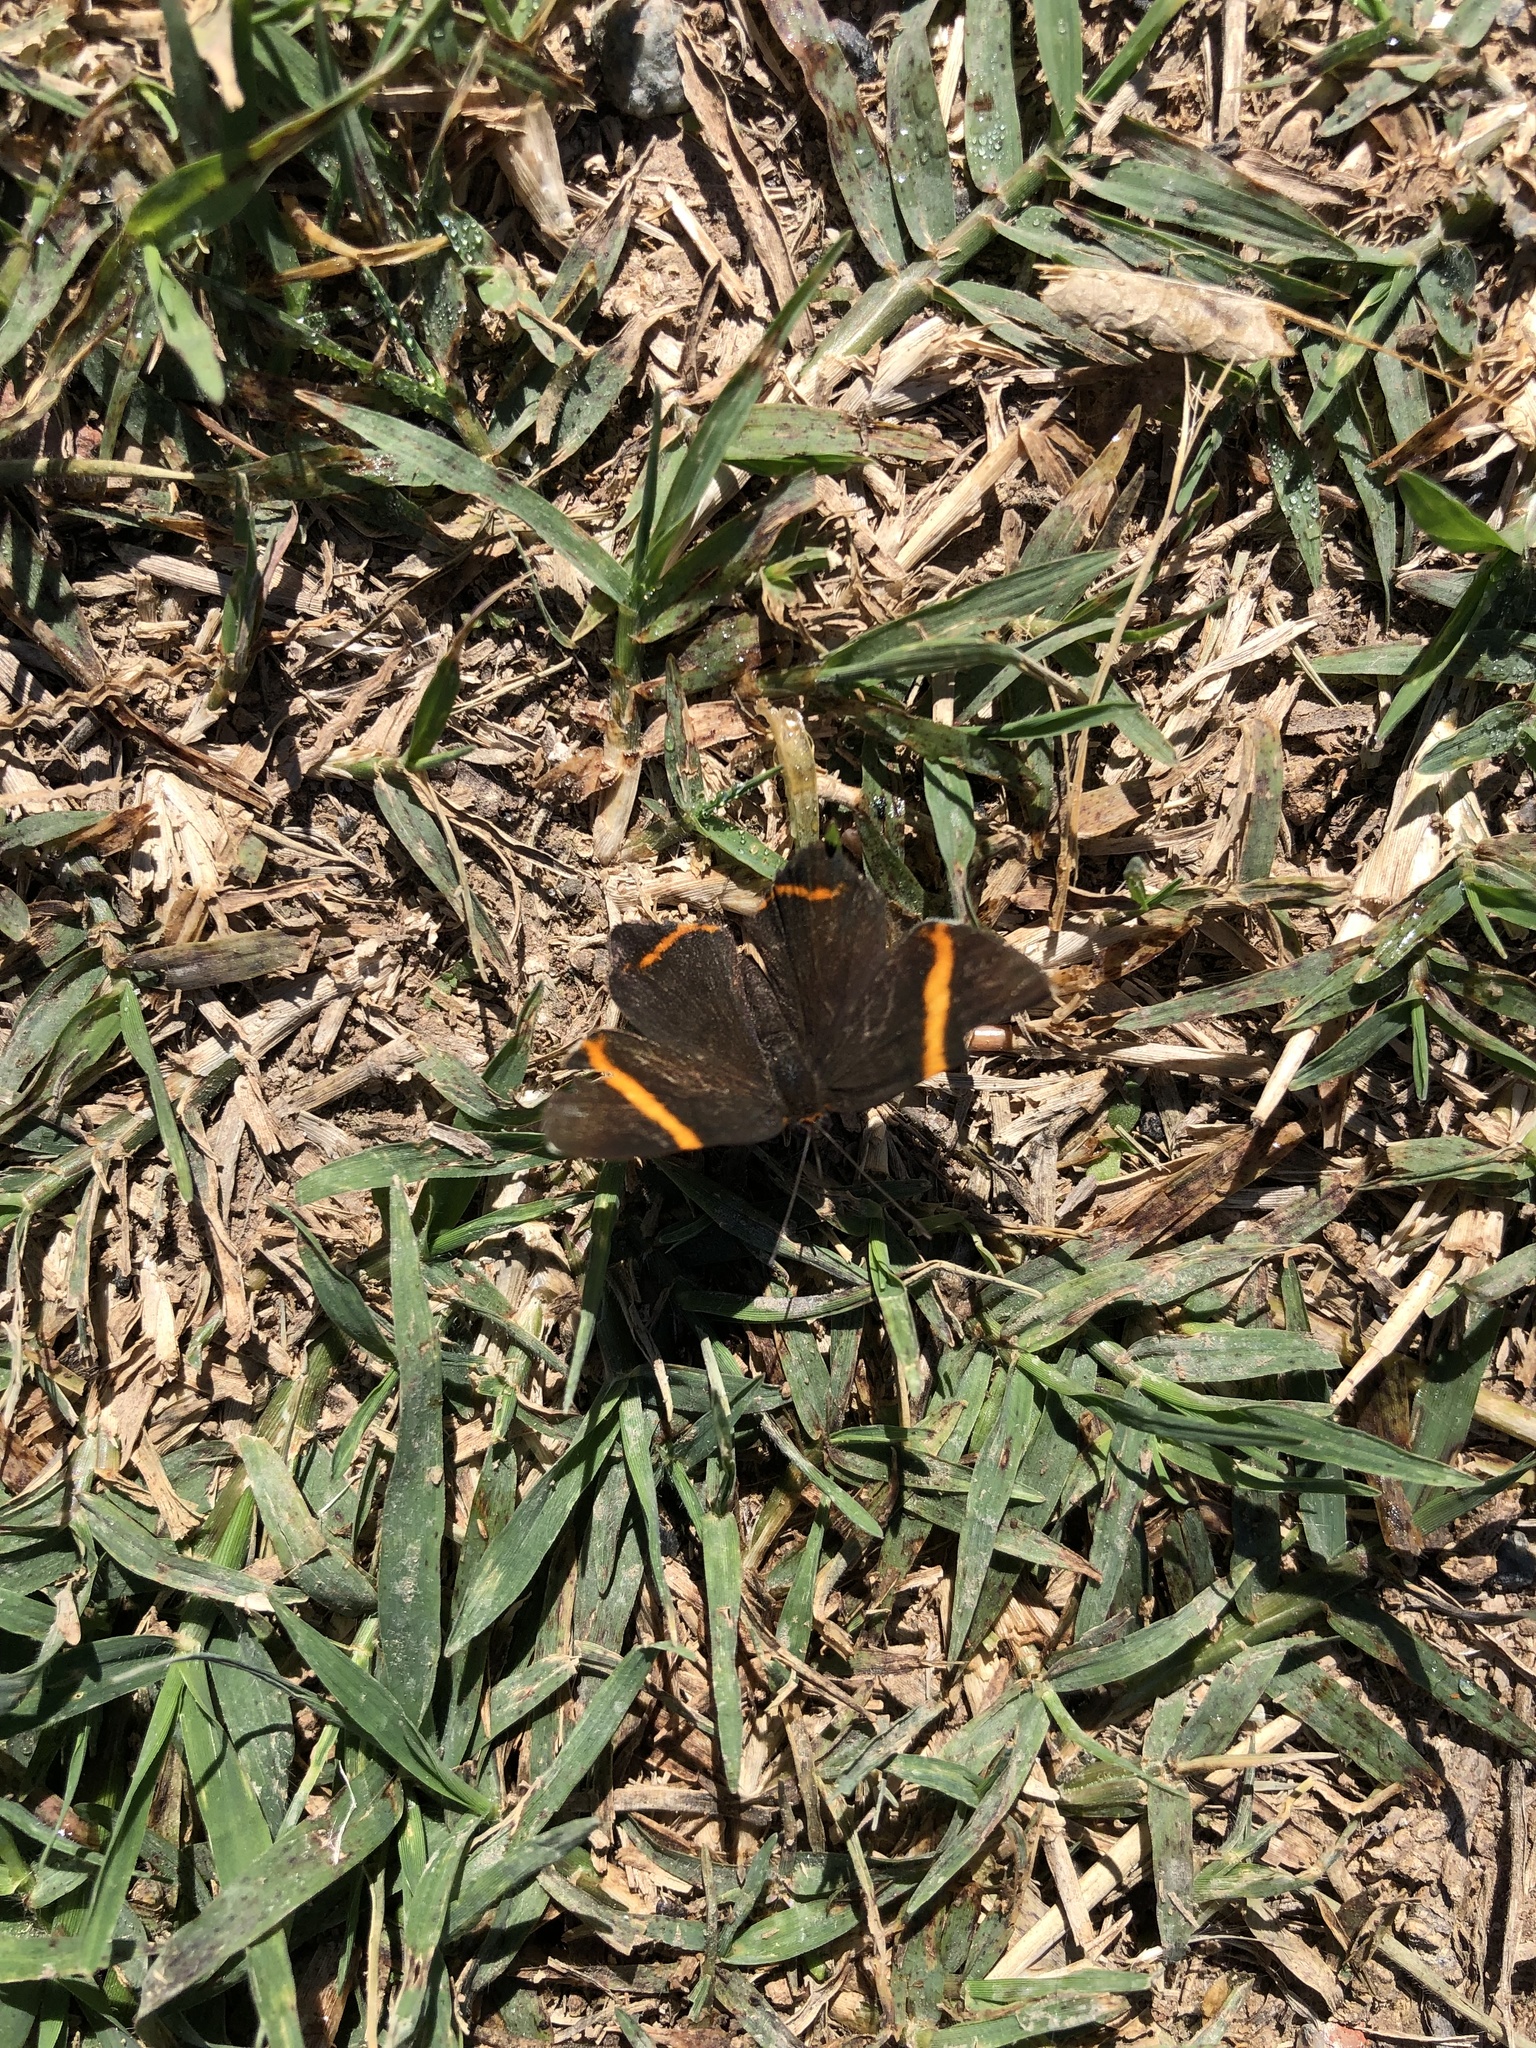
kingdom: Animalia
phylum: Arthropoda
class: Insecta
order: Lepidoptera
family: Riodinidae
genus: Riodina
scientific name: Riodina lysippoides
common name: Little dancer metalmark
